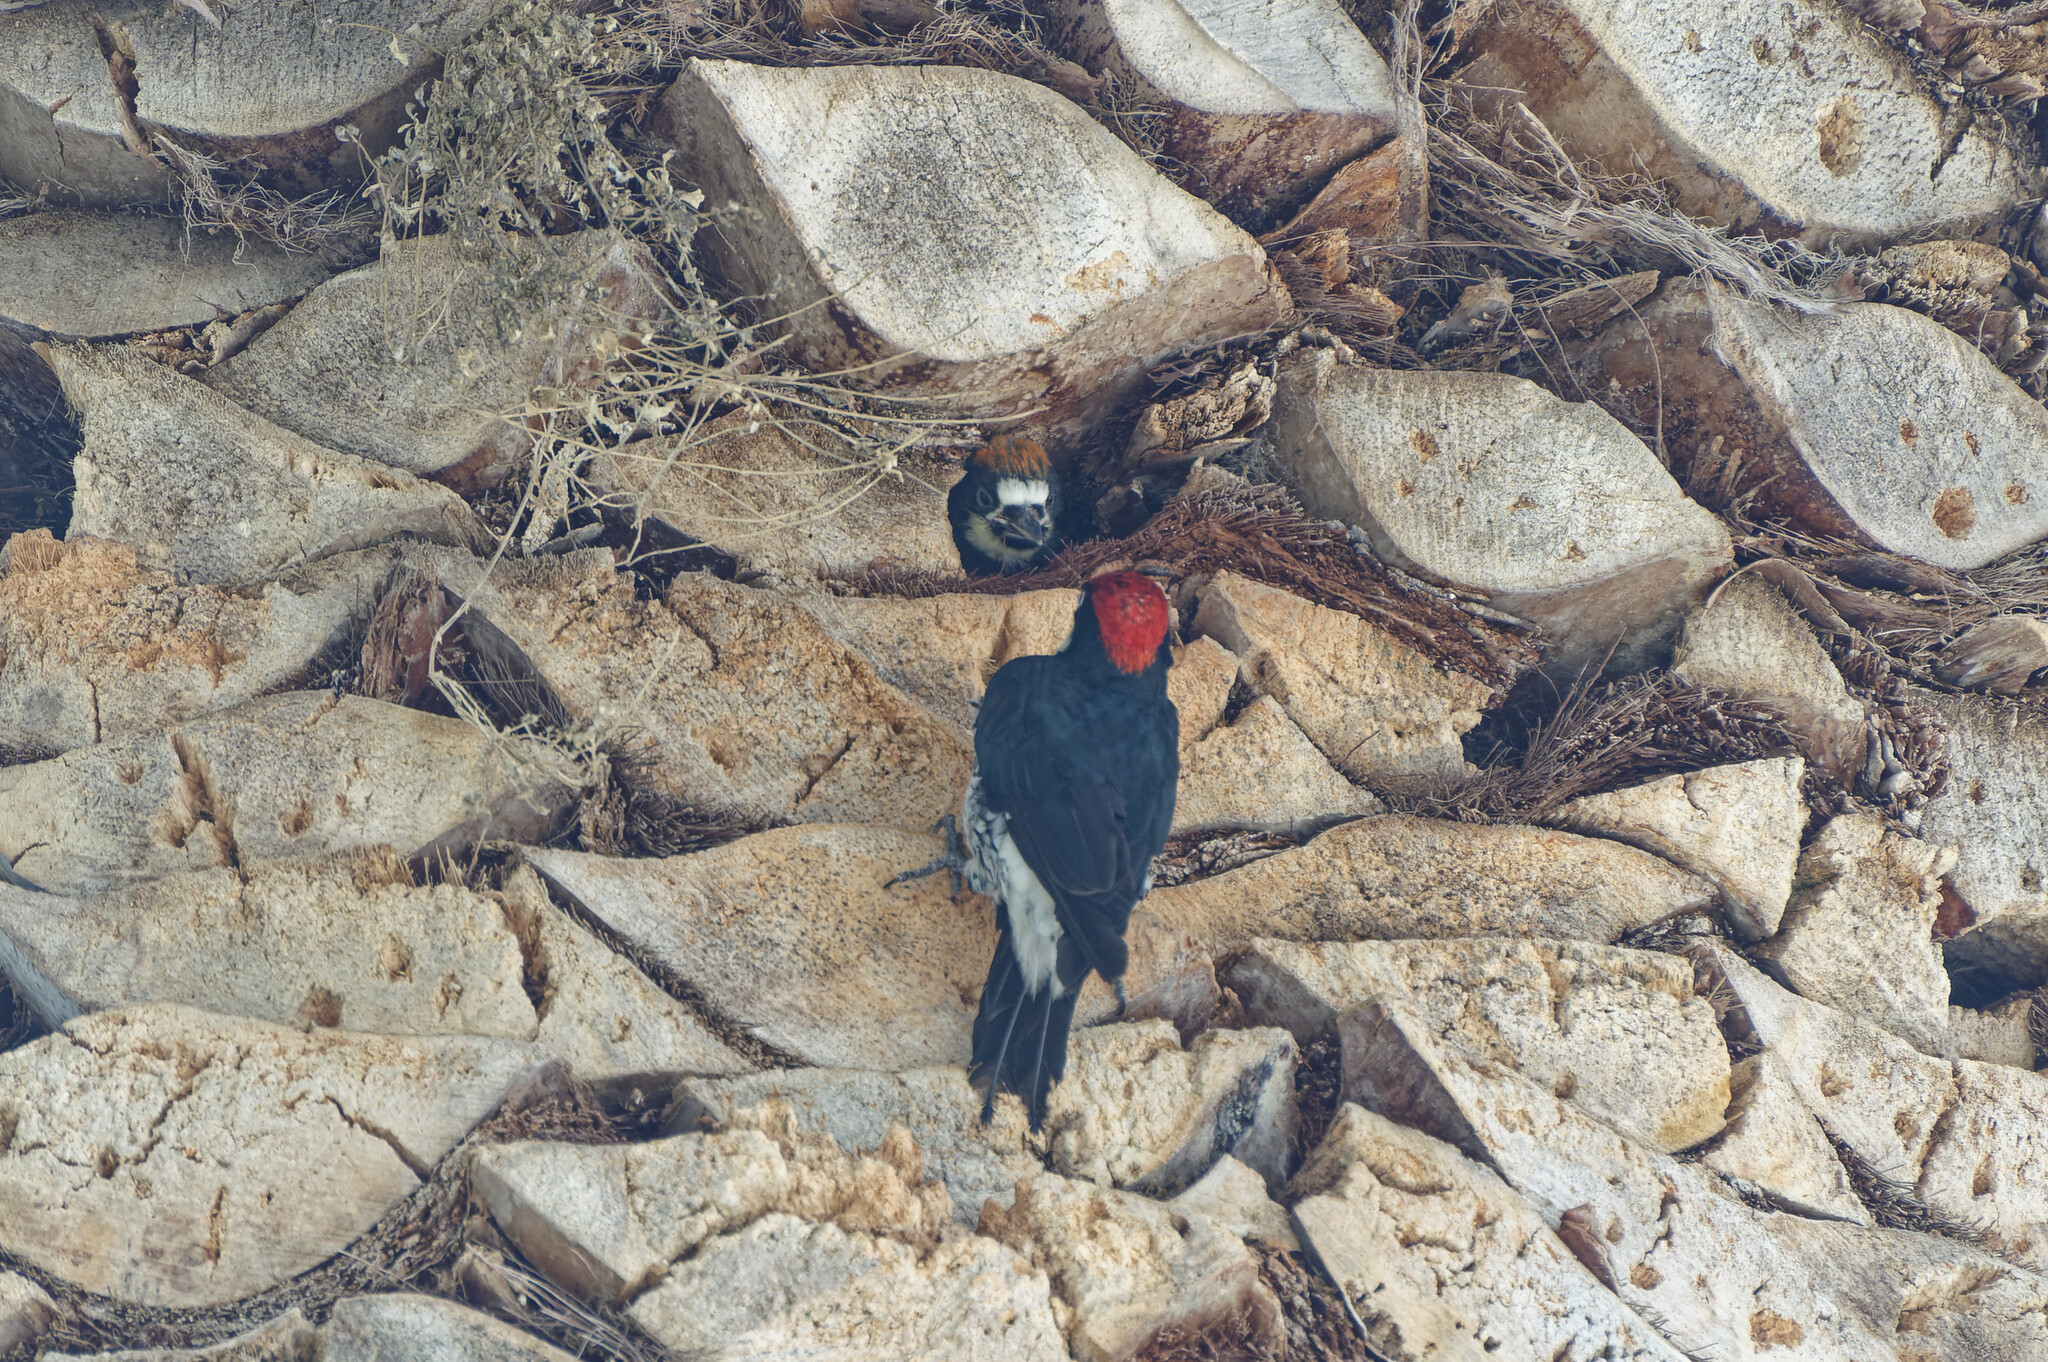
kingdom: Animalia
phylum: Chordata
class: Aves
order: Piciformes
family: Picidae
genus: Melanerpes
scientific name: Melanerpes formicivorus
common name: Acorn woodpecker
